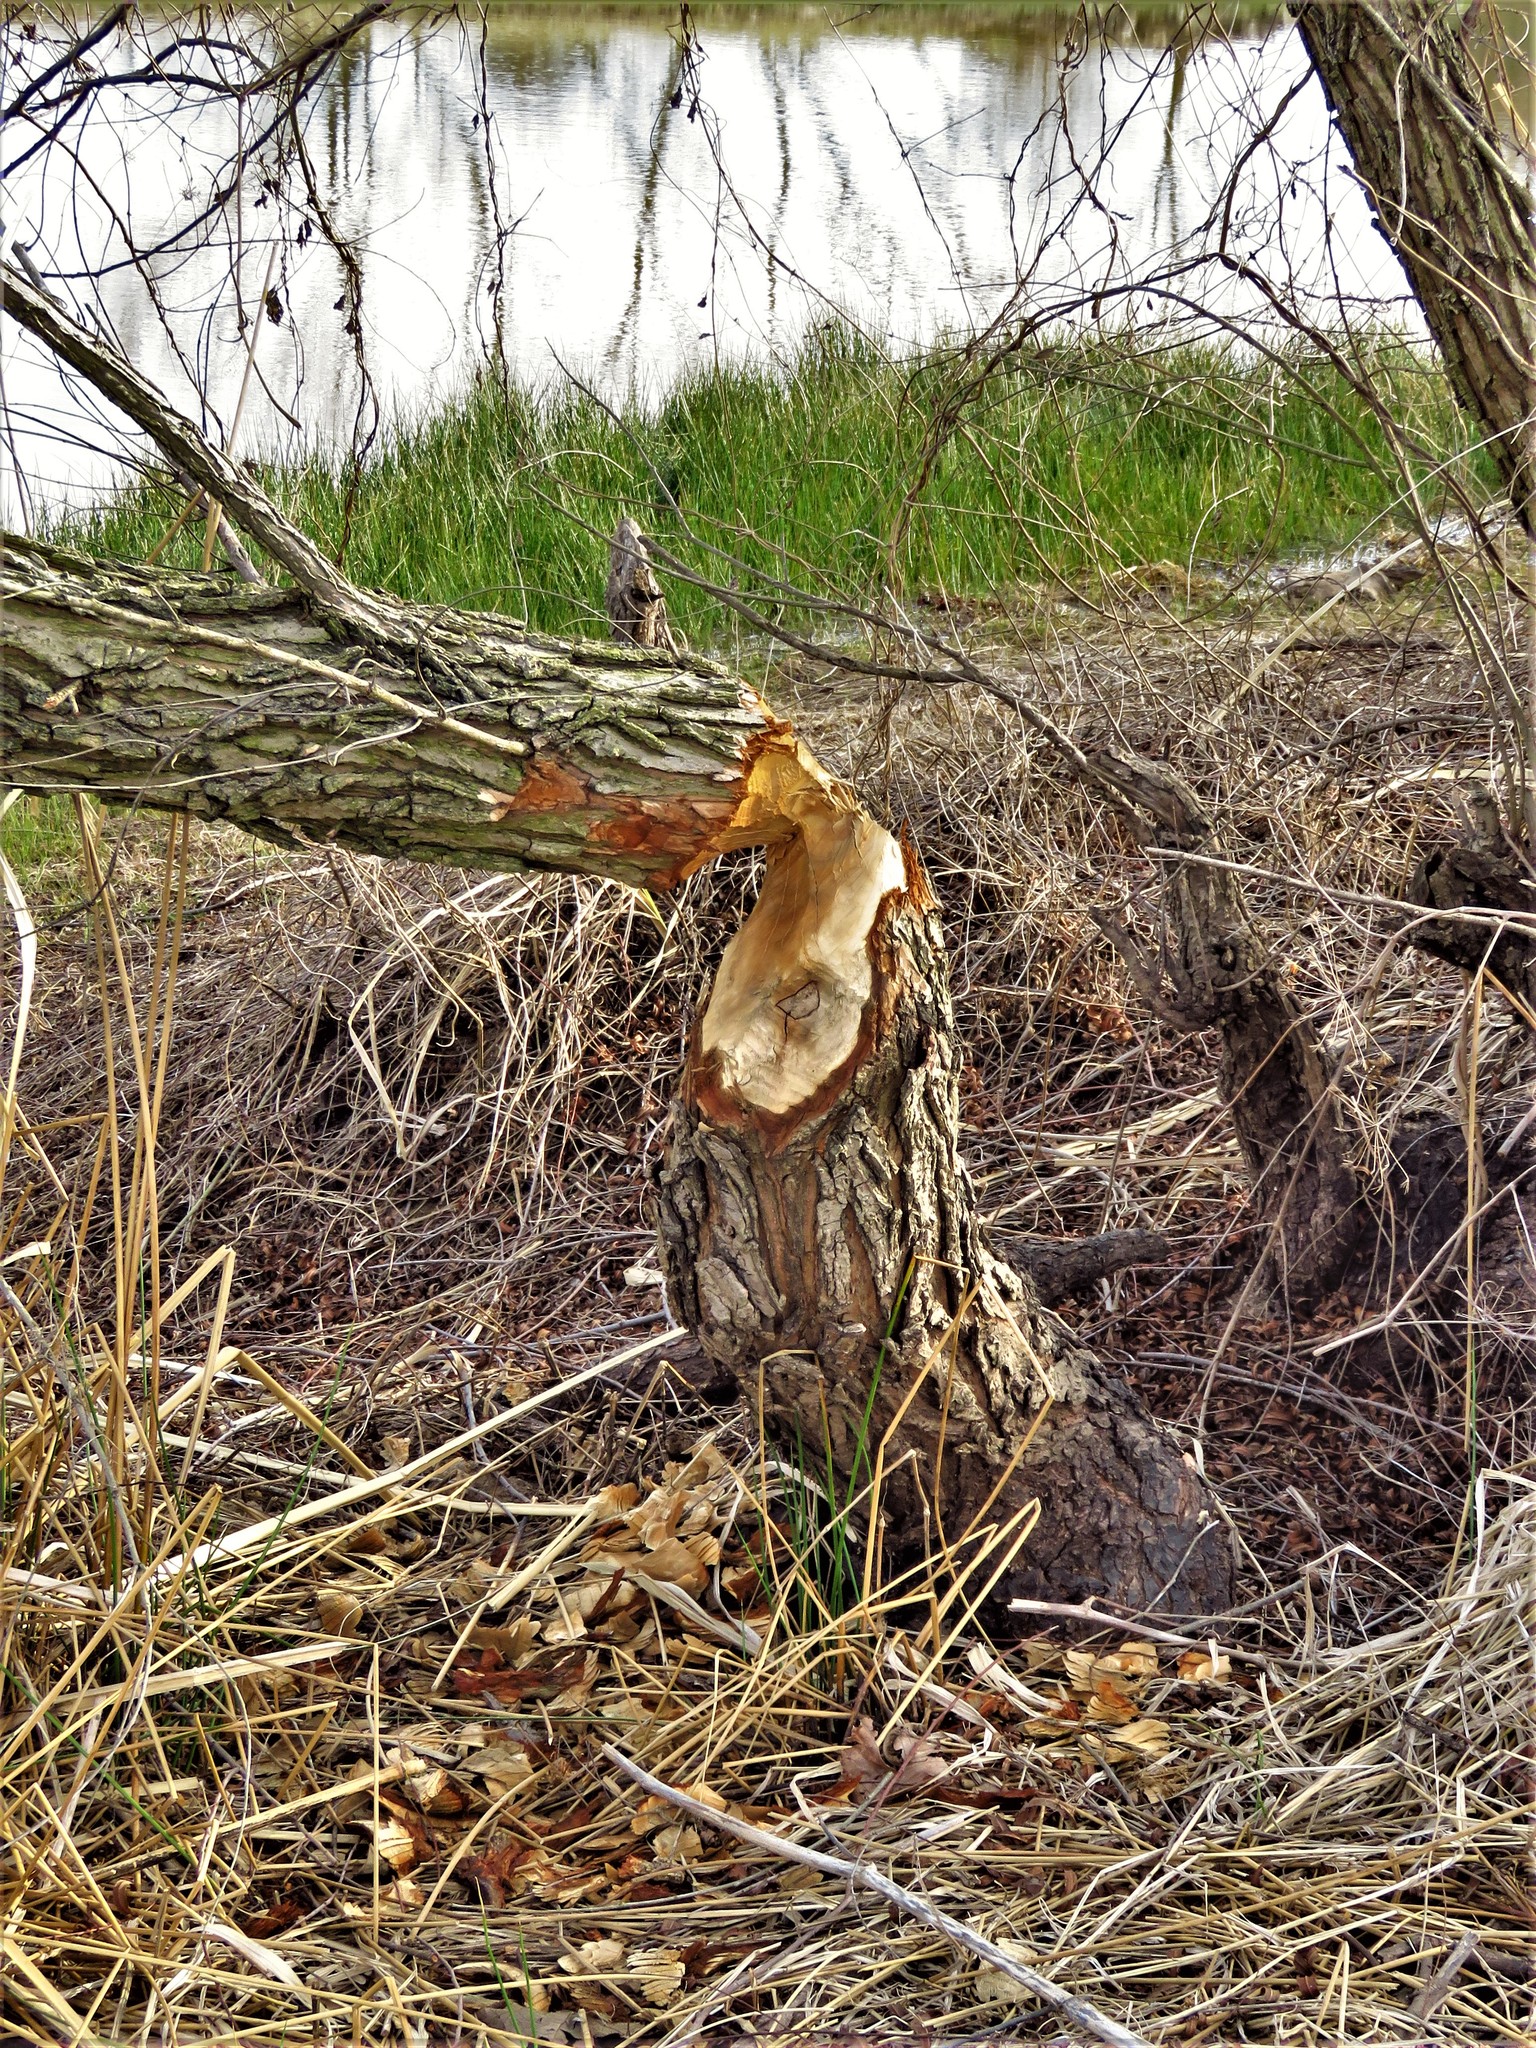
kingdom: Animalia
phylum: Chordata
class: Mammalia
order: Rodentia
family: Castoridae
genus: Castor
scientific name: Castor canadensis
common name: American beaver
